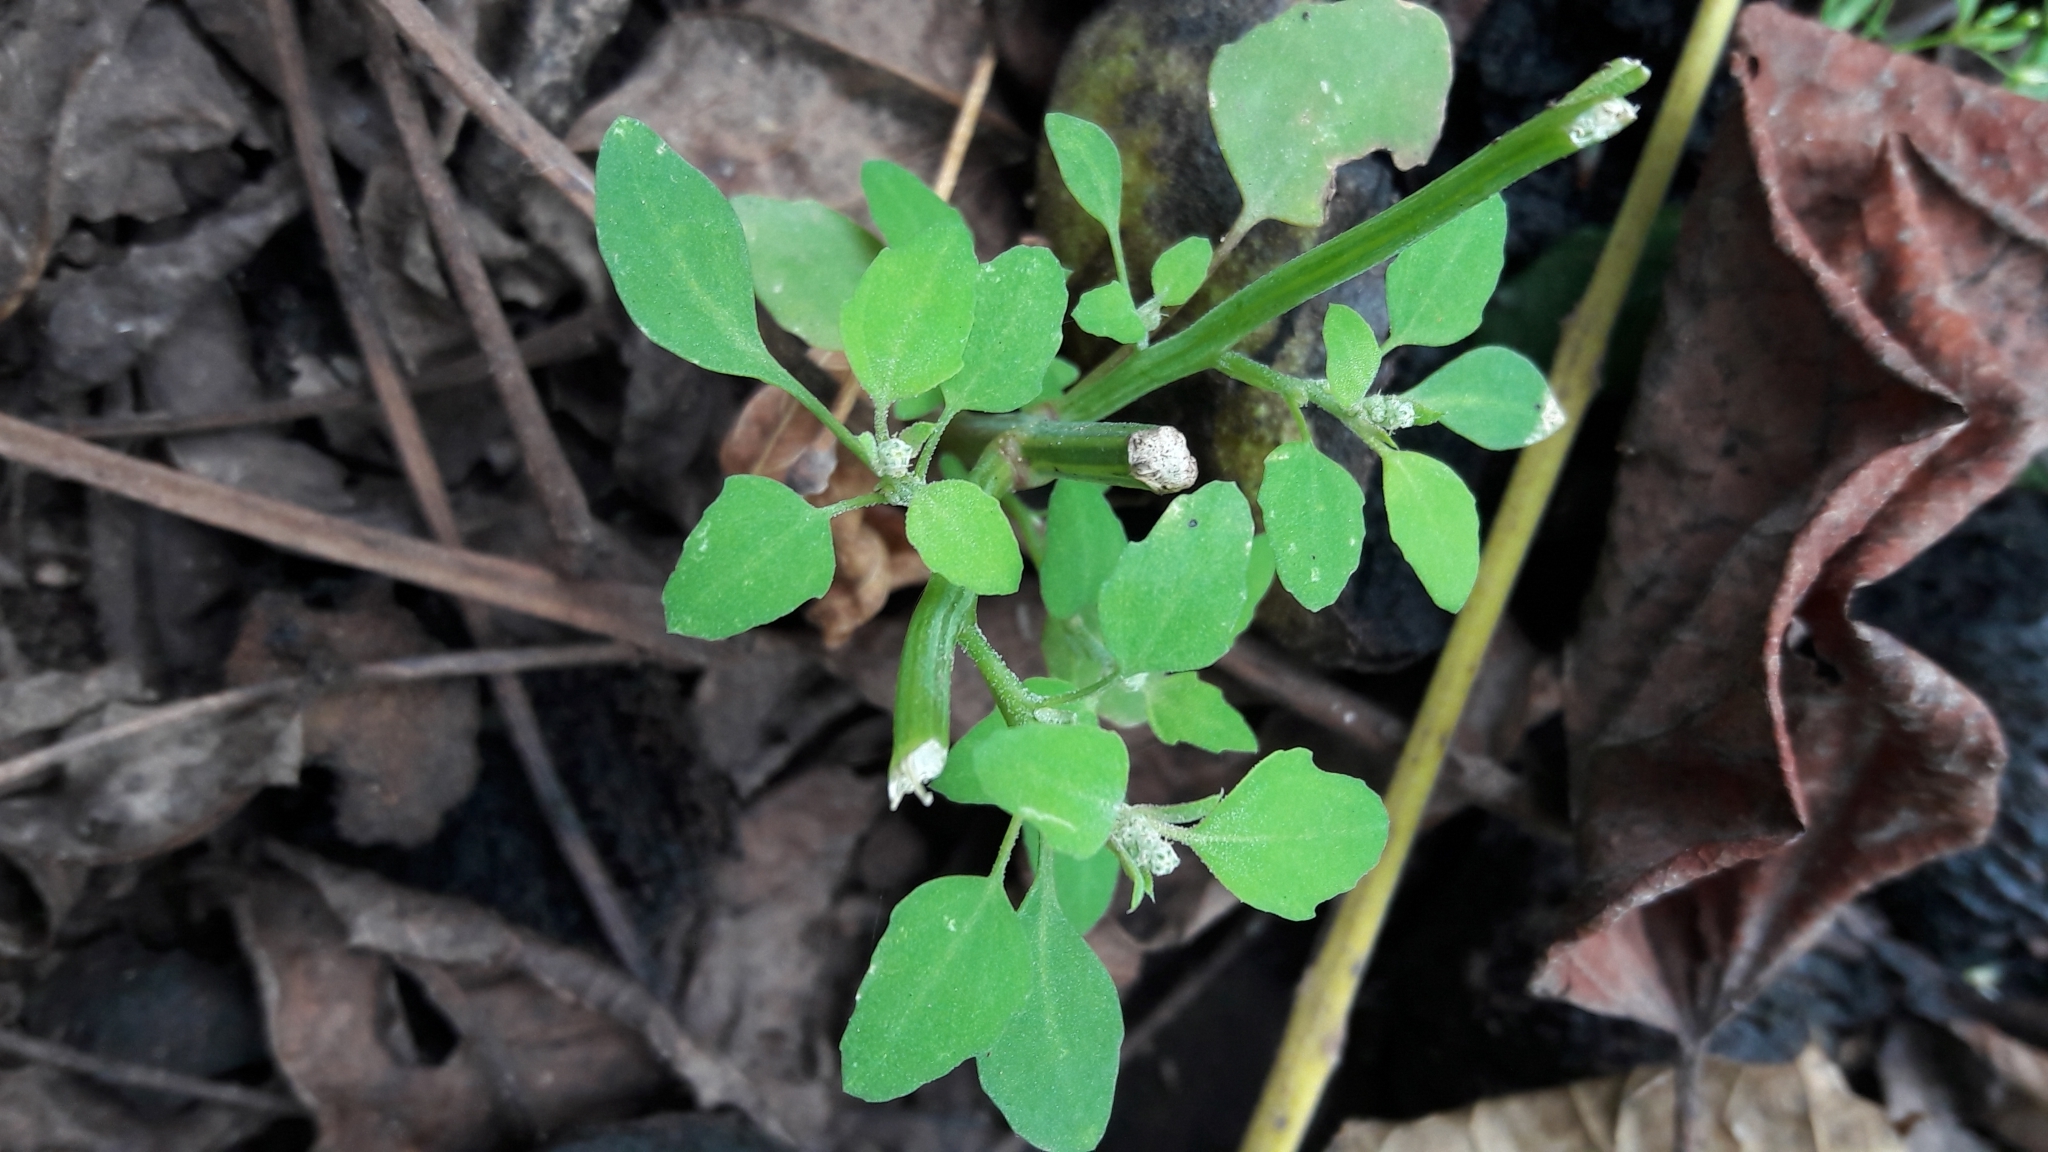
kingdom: Plantae
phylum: Tracheophyta
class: Magnoliopsida
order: Caryophyllales
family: Amaranthaceae
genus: Chenopodium
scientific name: Chenopodium album
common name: Fat-hen
